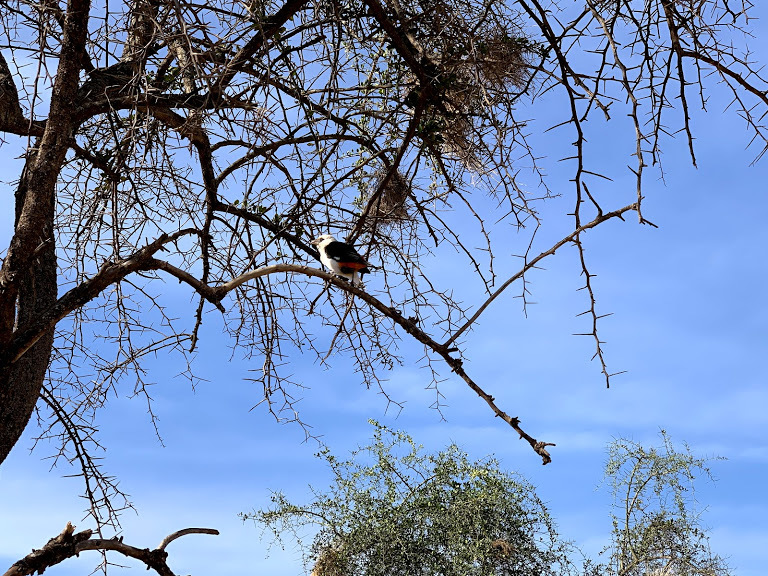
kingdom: Animalia
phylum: Chordata
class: Aves
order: Passeriformes
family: Ploceidae
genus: Dinemellia
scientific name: Dinemellia dinemelli
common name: White-headed buffalo weaver
